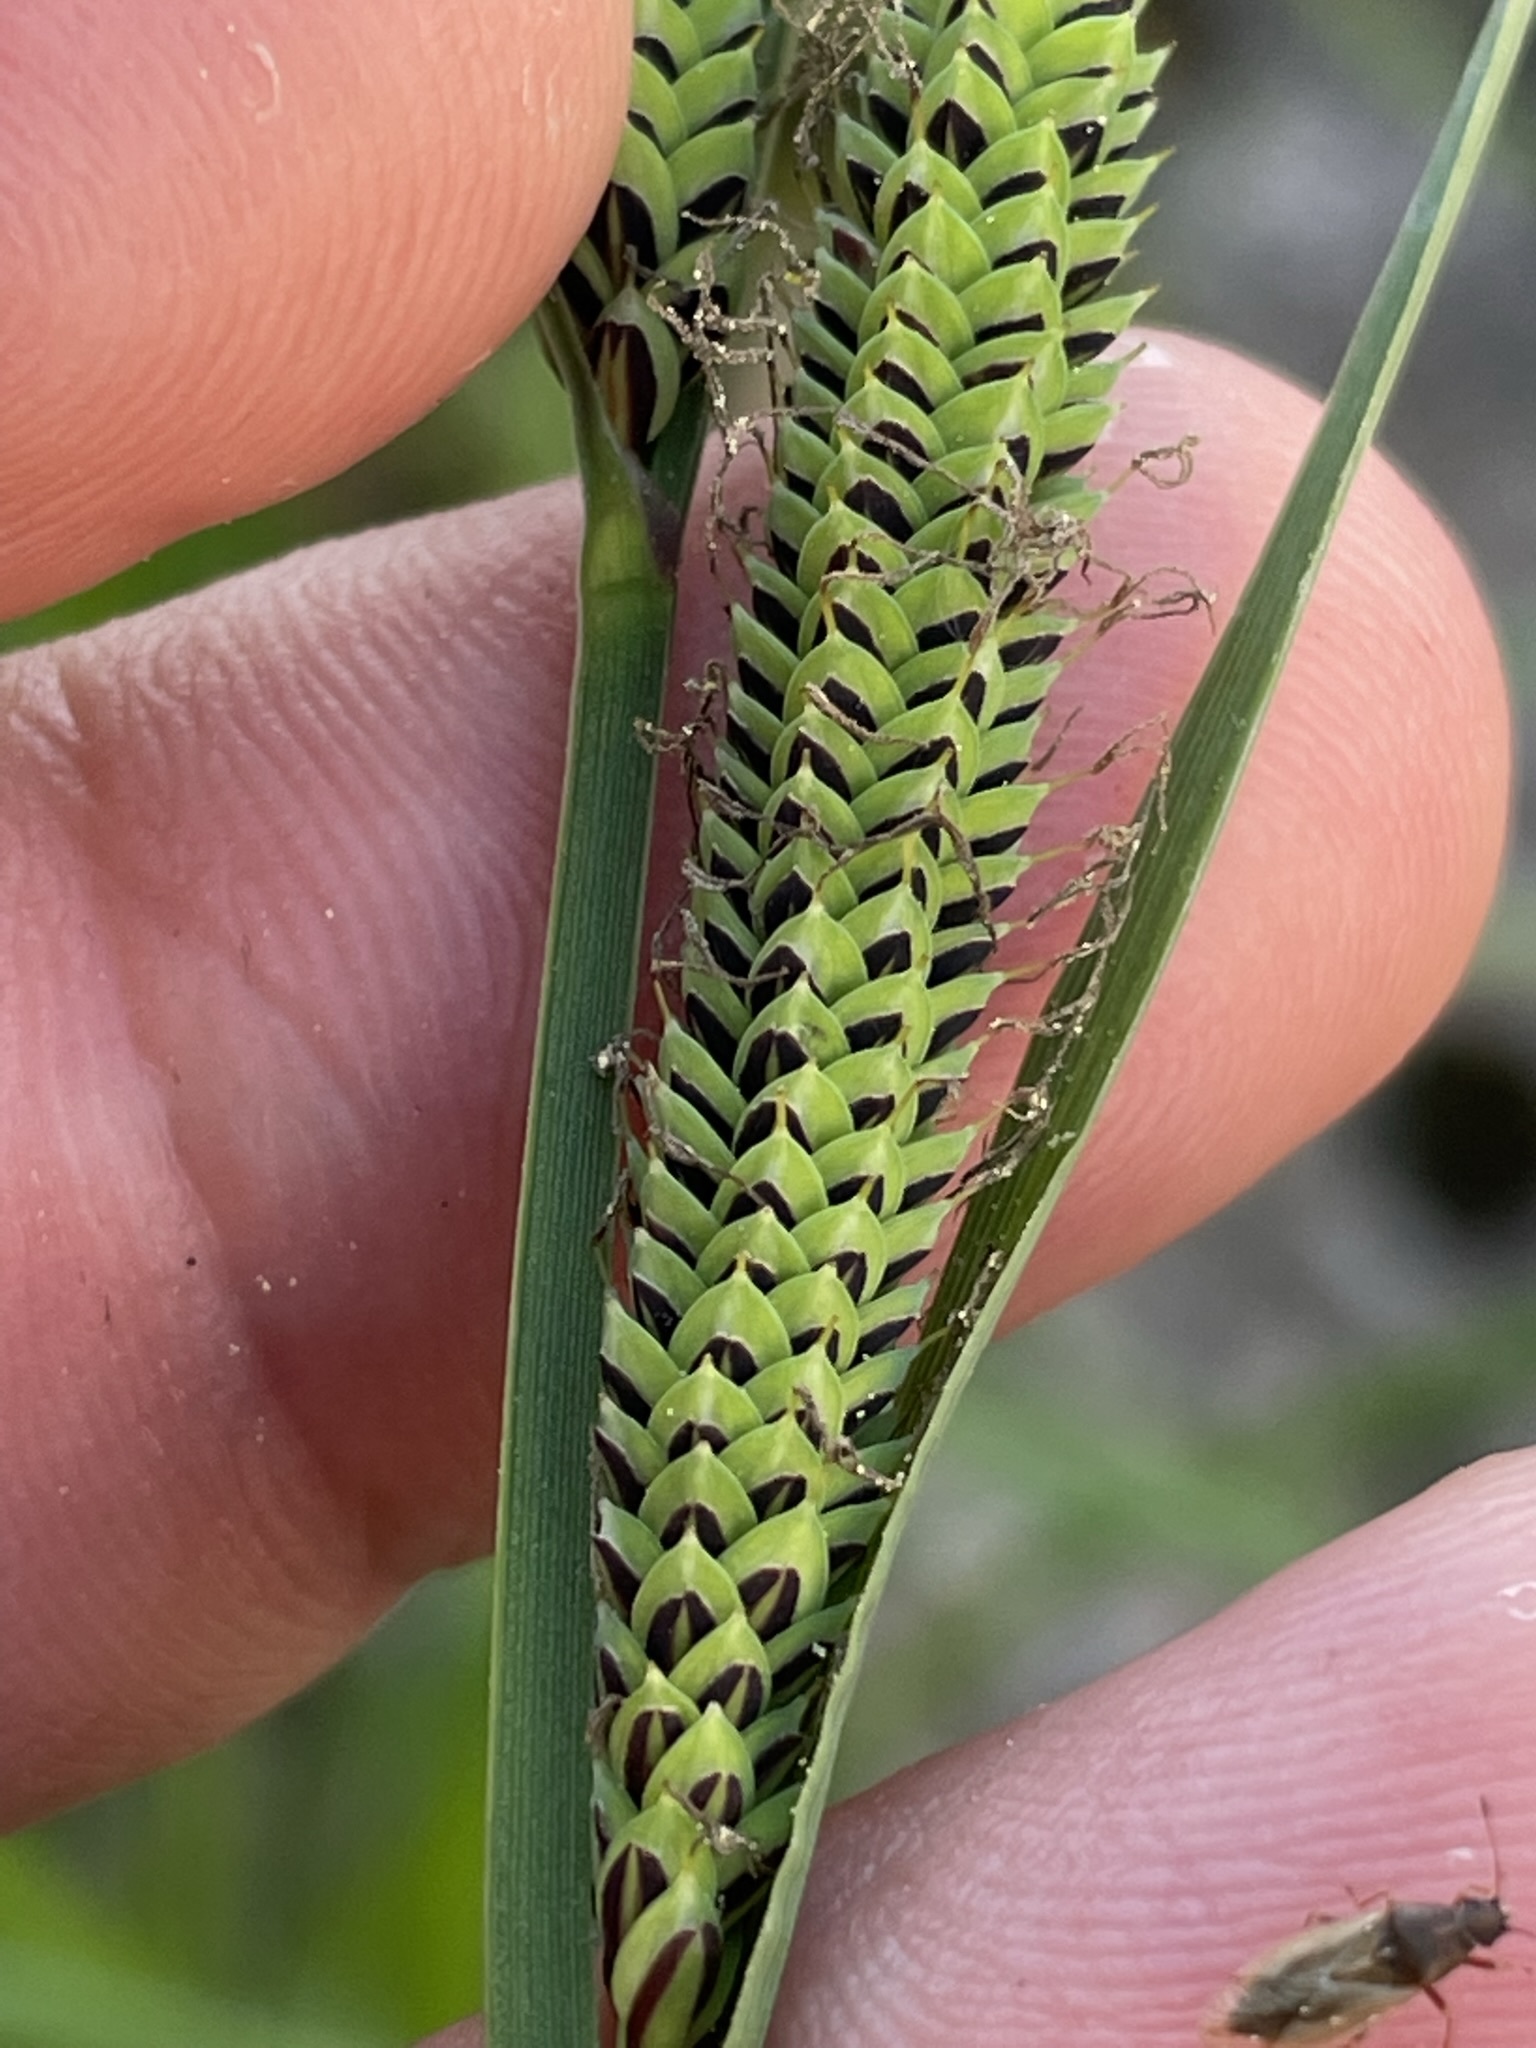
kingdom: Plantae
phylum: Tracheophyta
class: Liliopsida
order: Poales
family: Cyperaceae
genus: Carex
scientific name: Carex elata
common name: Tufted sedge
